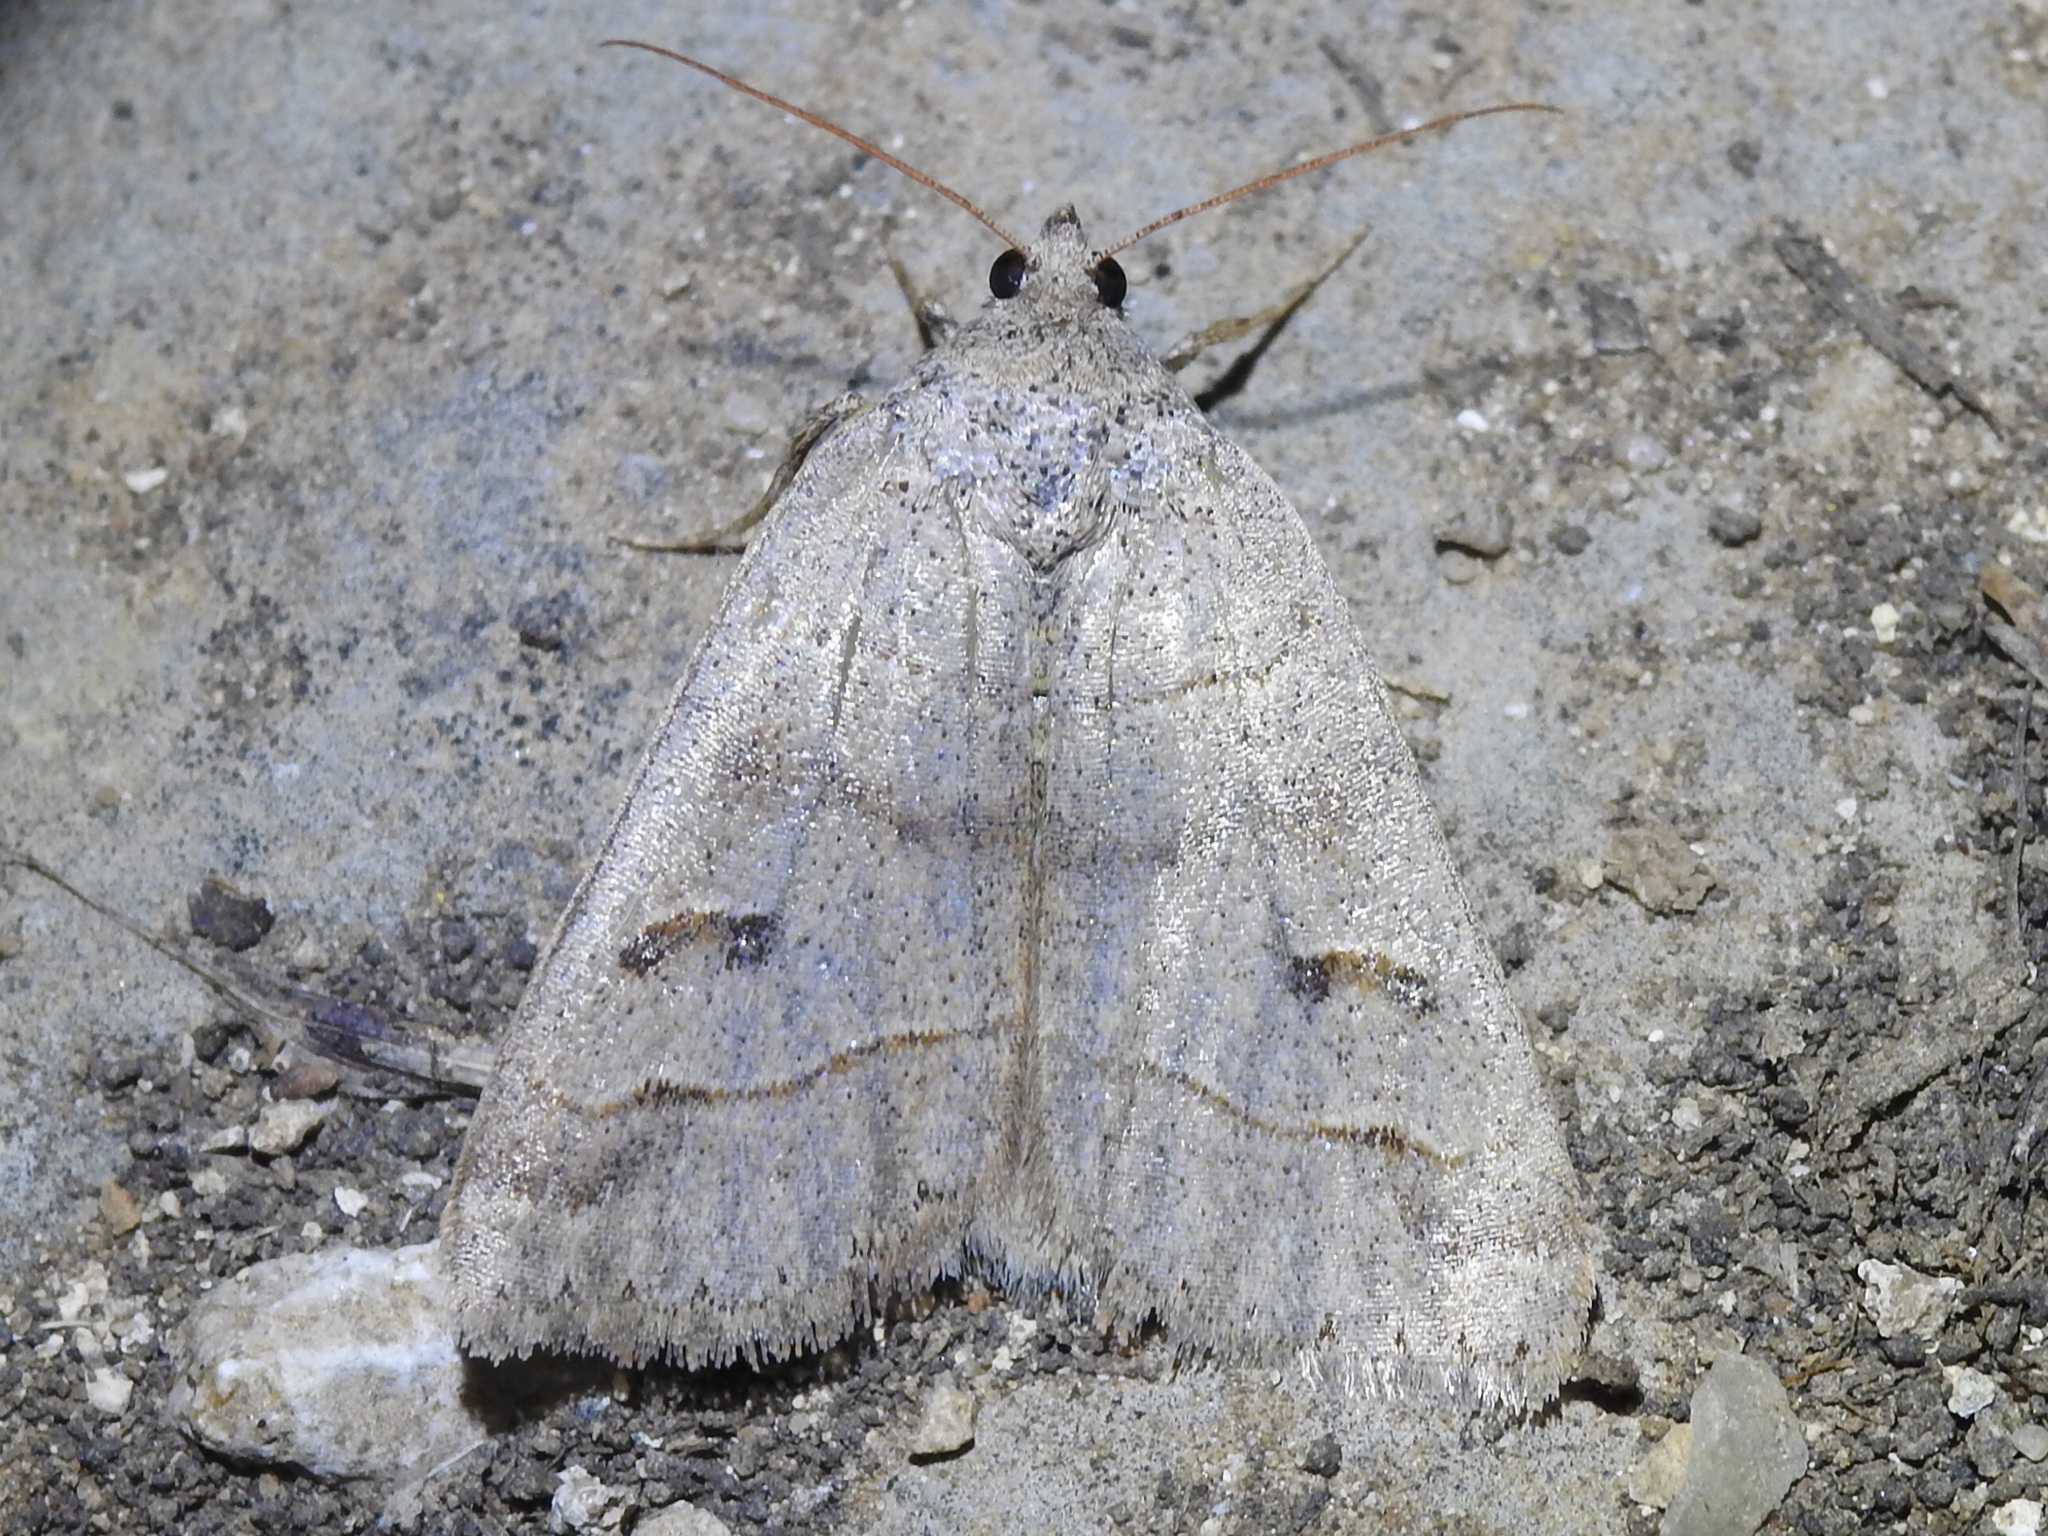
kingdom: Animalia
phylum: Arthropoda
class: Insecta
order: Lepidoptera
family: Erebidae
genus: Phoberia
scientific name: Phoberia atomaris
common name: Common oak moth
